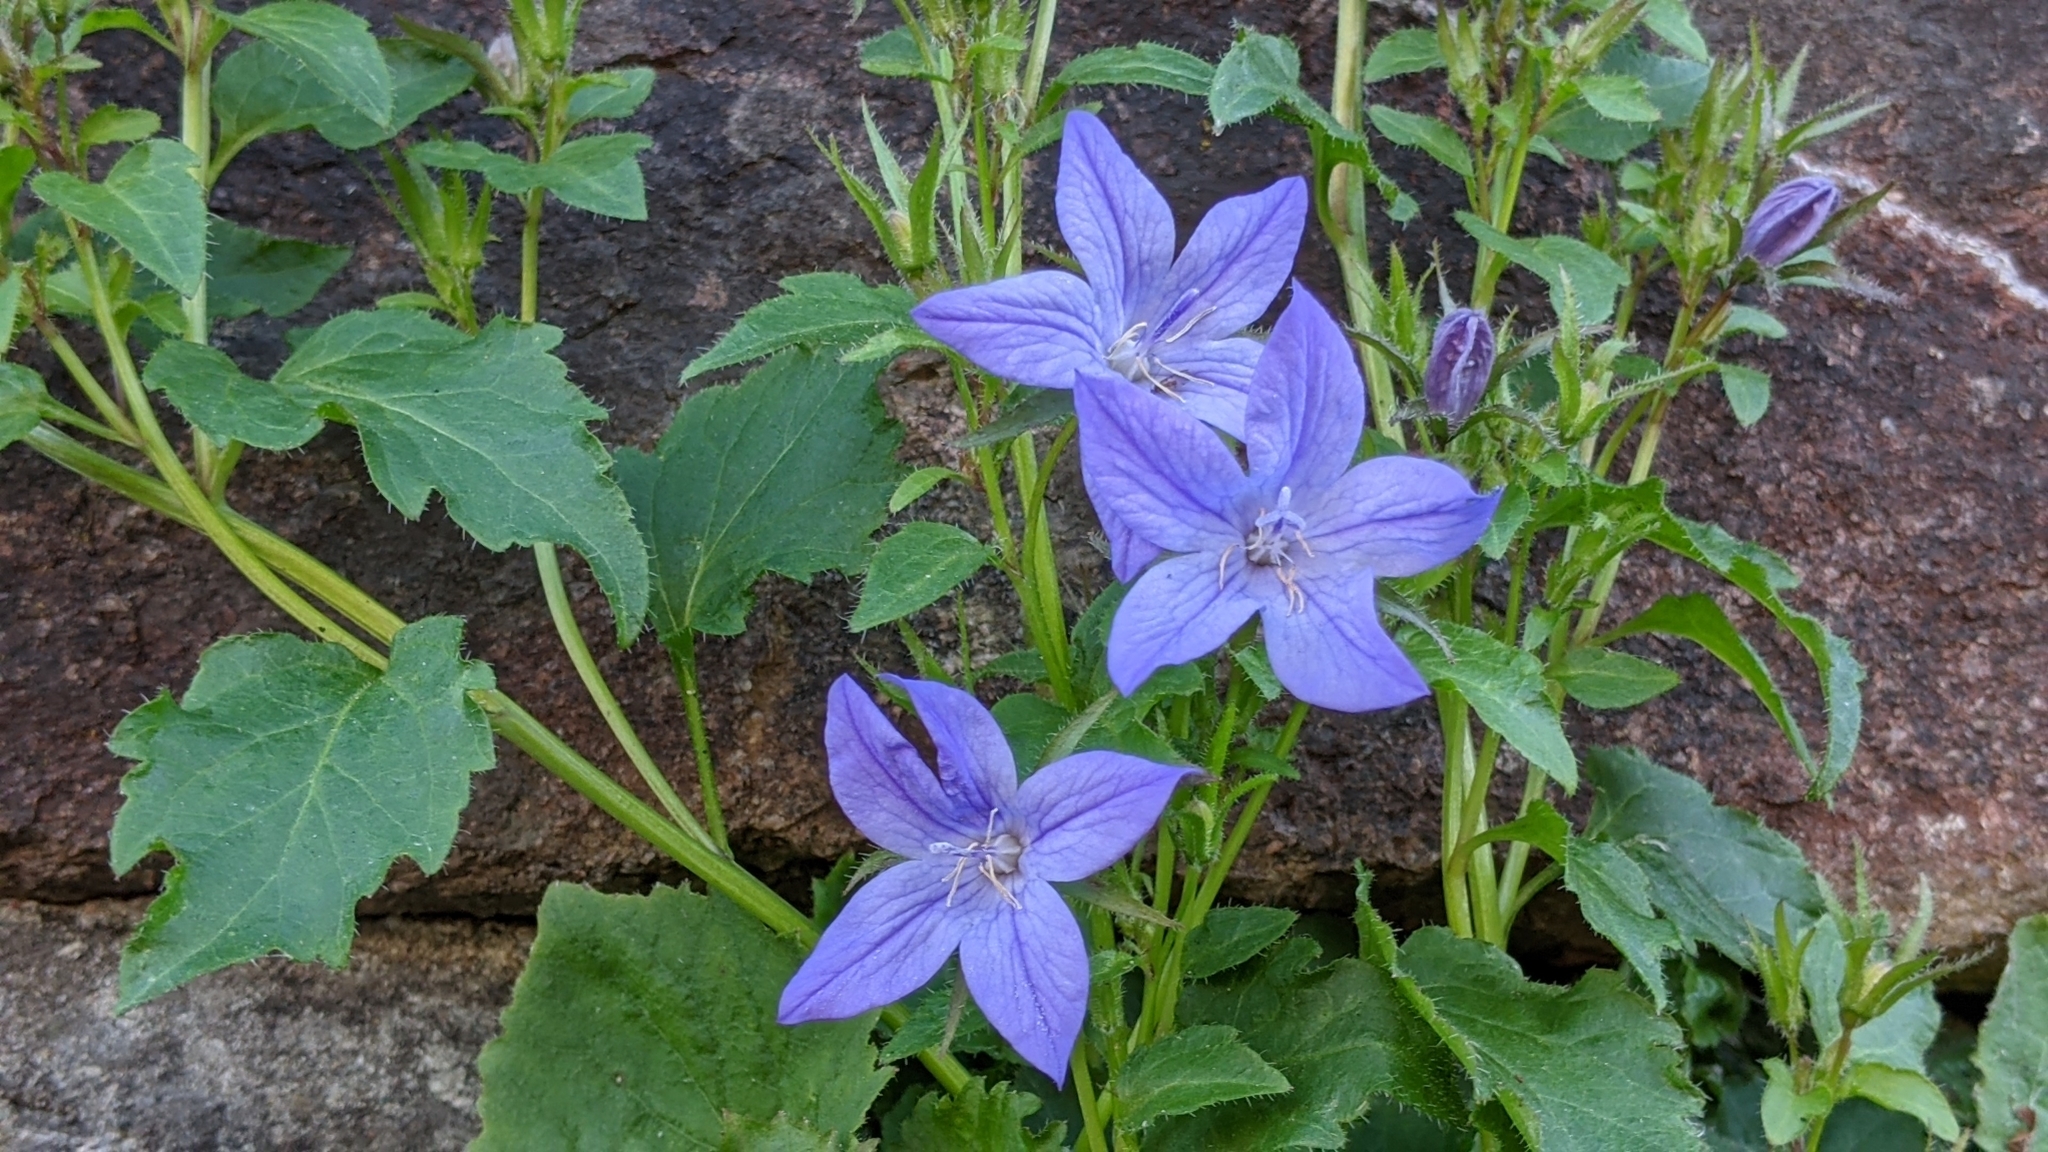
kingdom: Plantae
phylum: Tracheophyta
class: Magnoliopsida
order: Asterales
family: Campanulaceae
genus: Campanula
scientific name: Campanula poscharskyana
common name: Trailing bellflower
